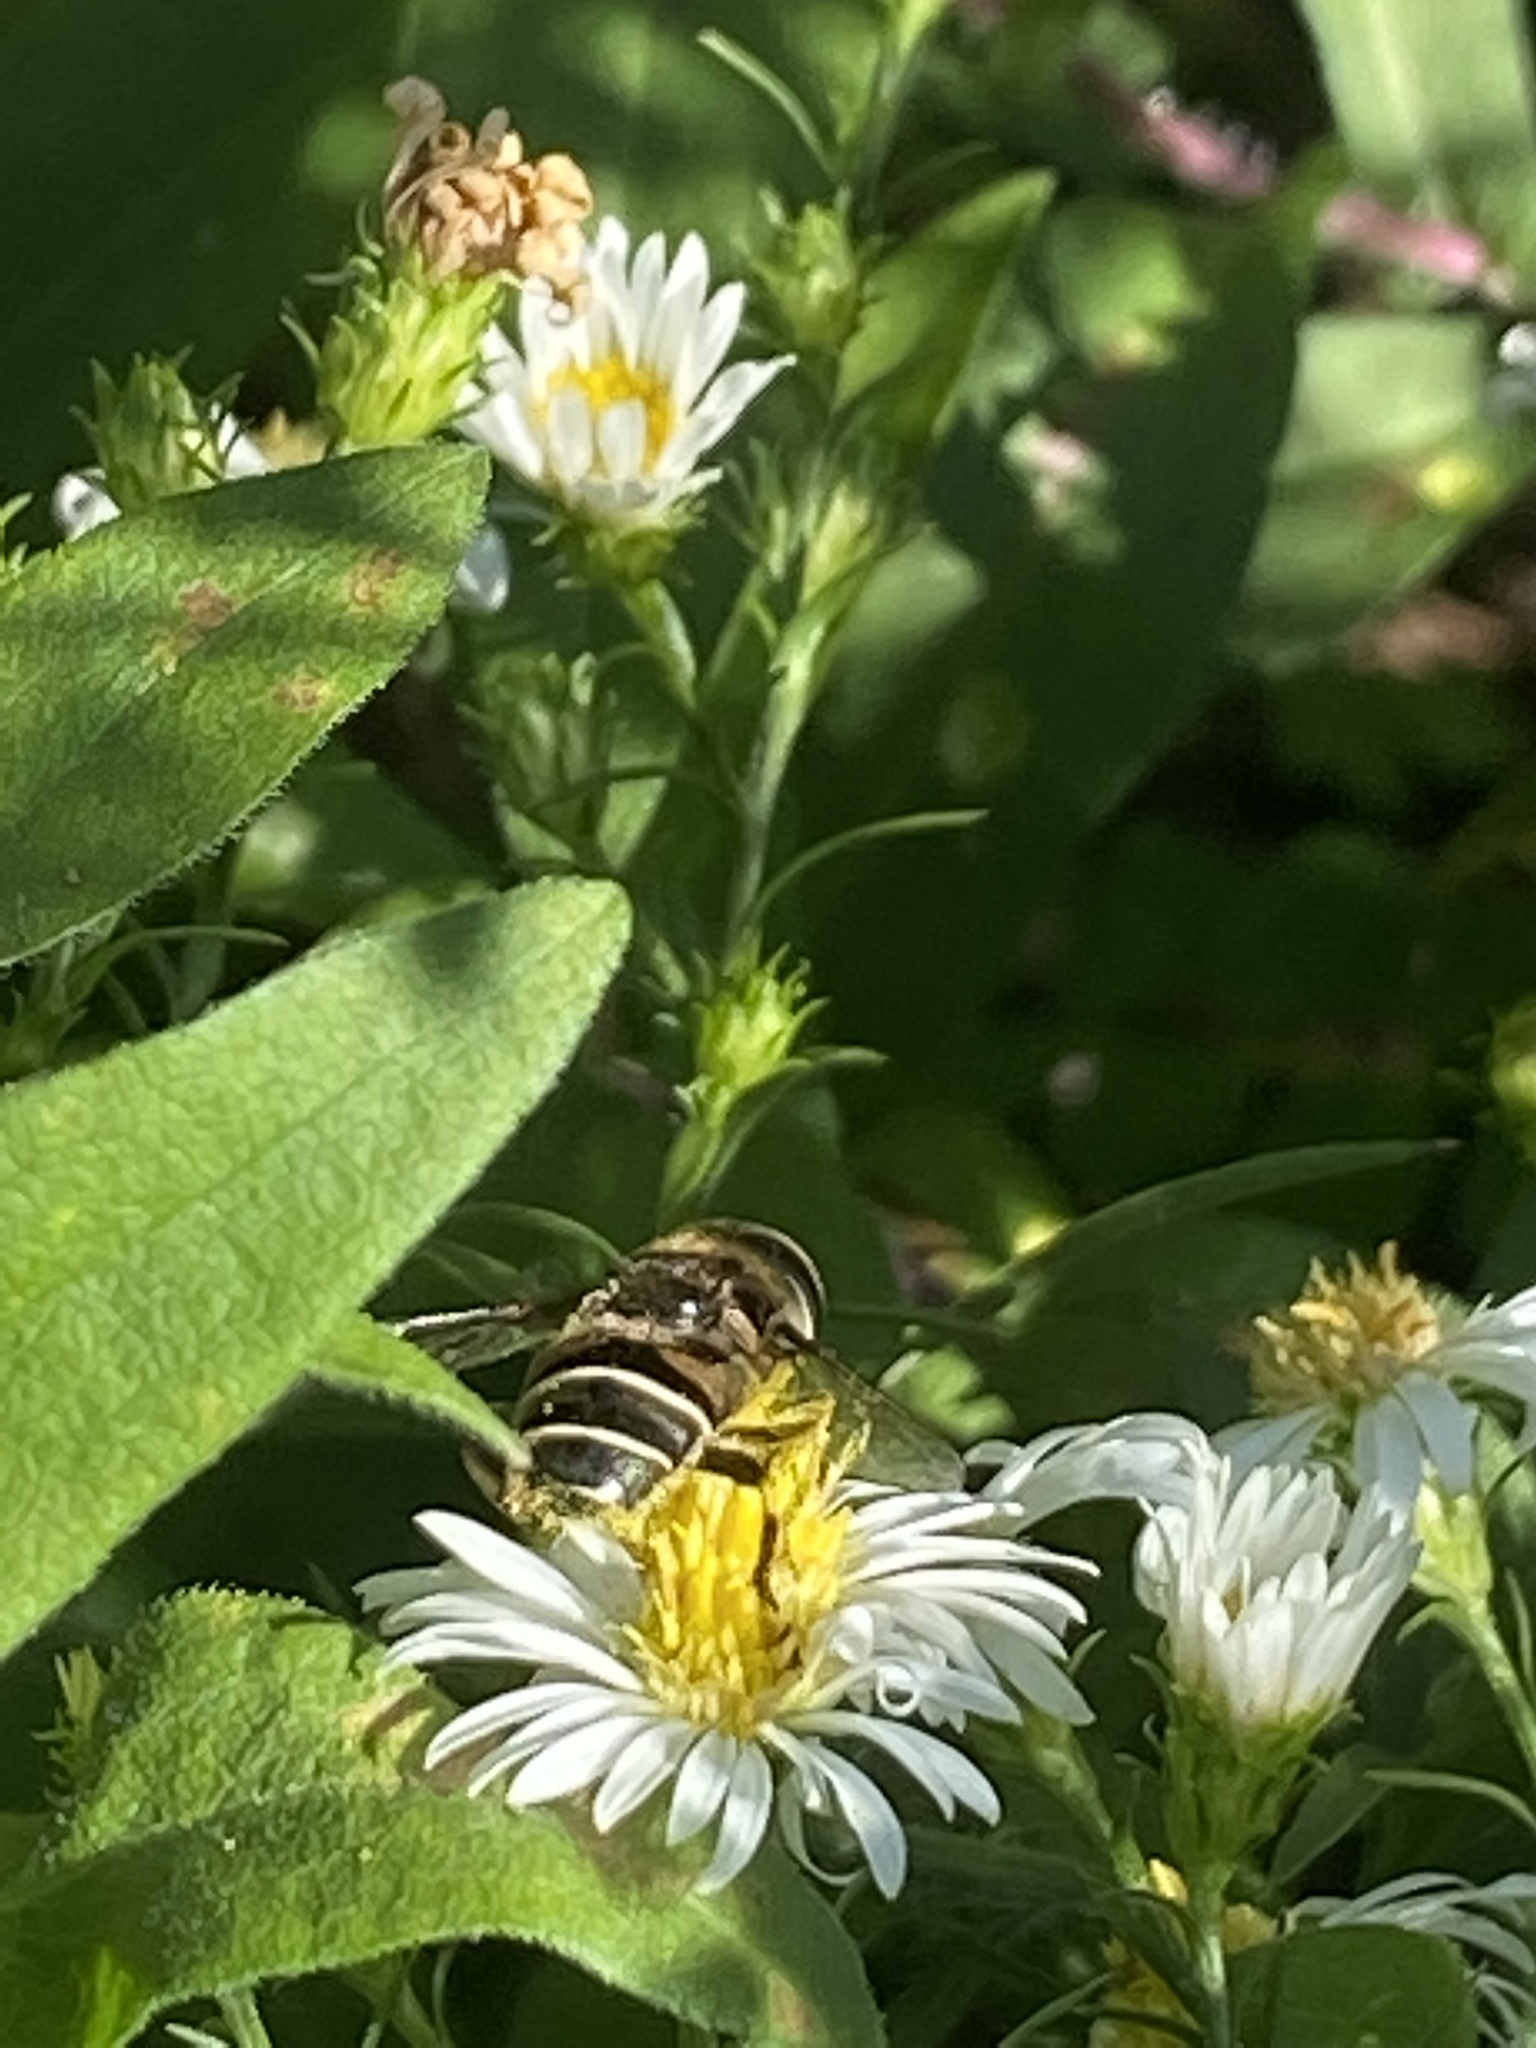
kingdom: Animalia
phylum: Arthropoda
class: Insecta
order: Diptera
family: Syrphidae
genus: Eristalis
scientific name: Eristalis dimidiata
